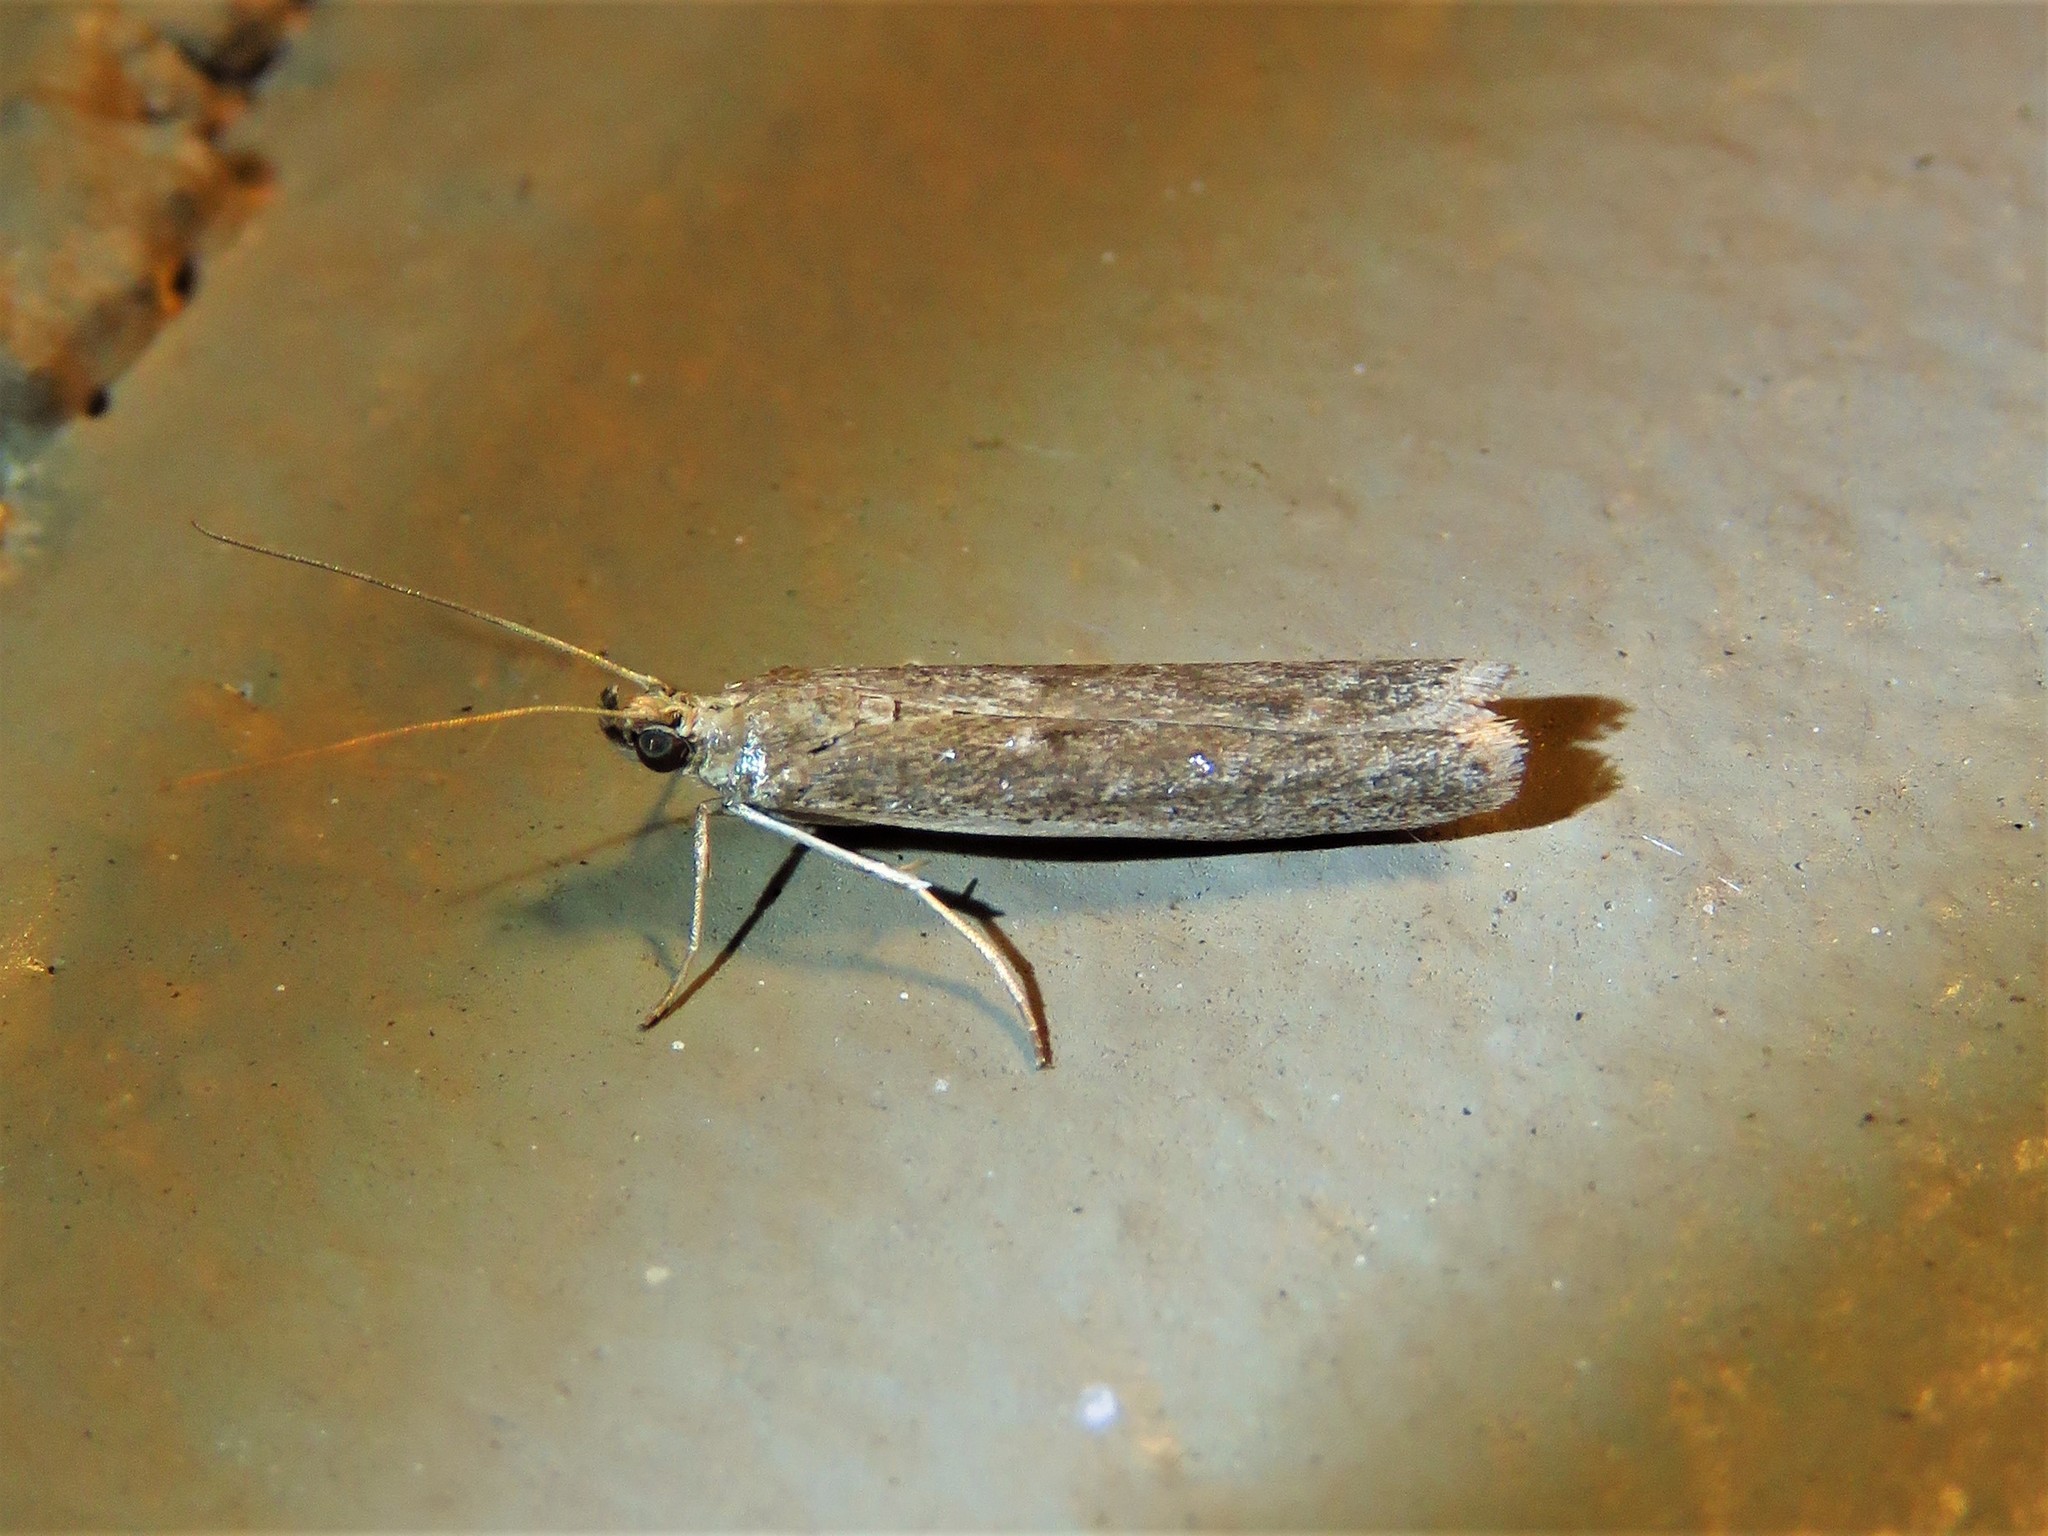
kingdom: Animalia
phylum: Arthropoda
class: Insecta
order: Lepidoptera
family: Pyralidae
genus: Homoeosoma
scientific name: Homoeosoma electella
